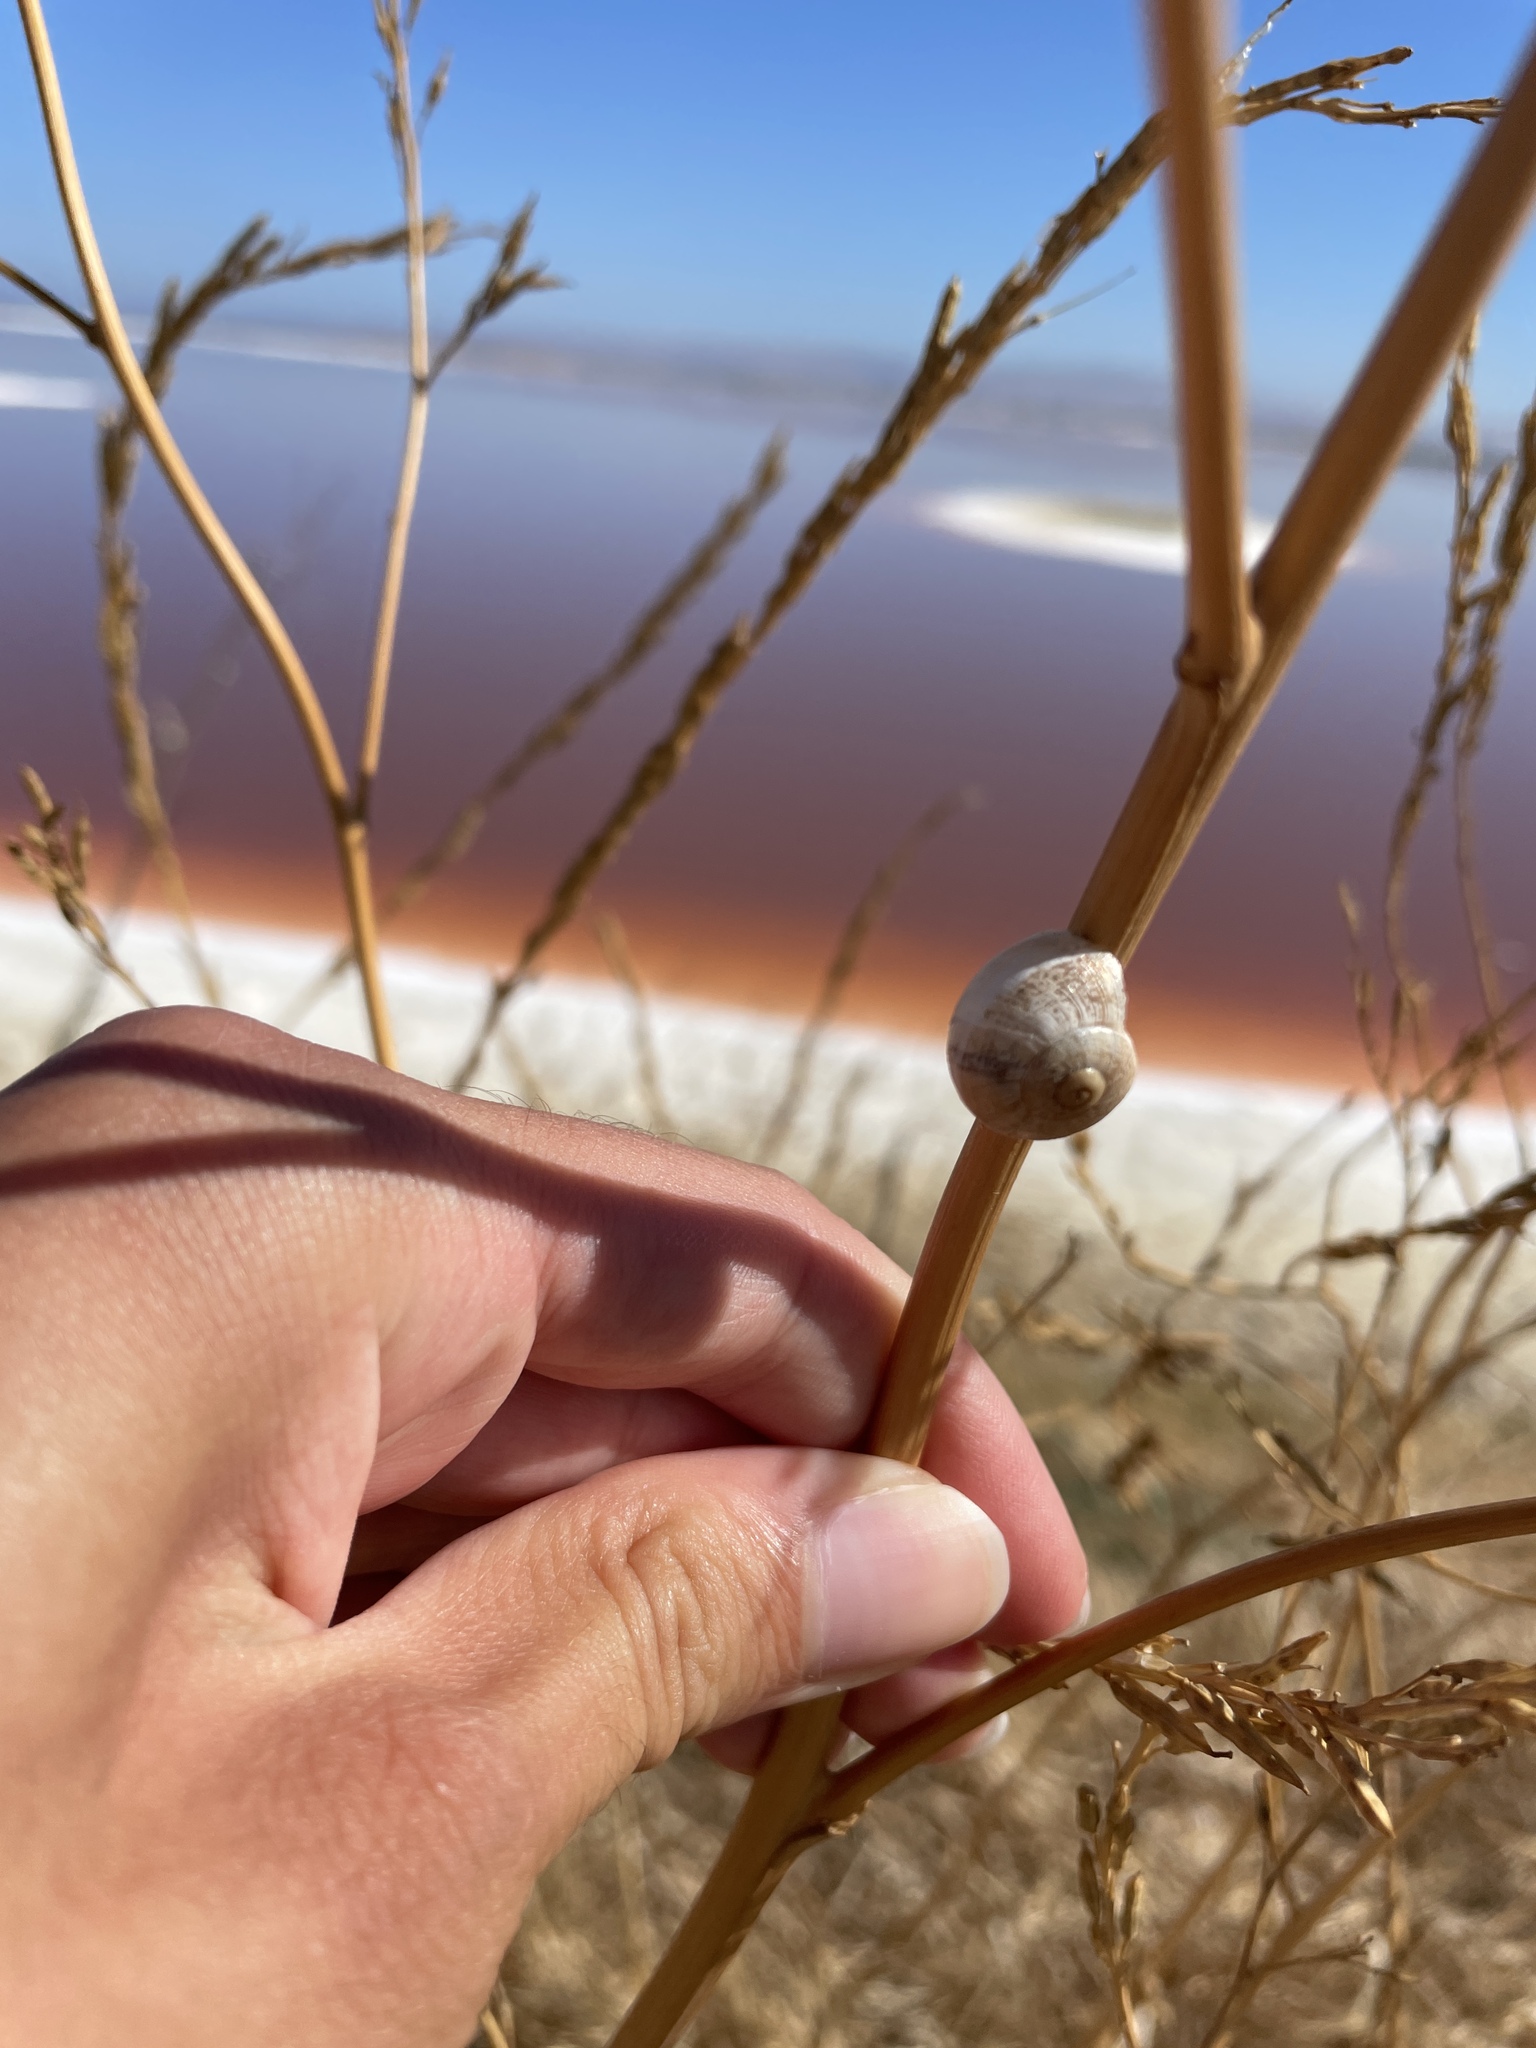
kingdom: Animalia
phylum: Mollusca
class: Gastropoda
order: Stylommatophora
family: Helicidae
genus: Otala
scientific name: Otala lactea
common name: Milk snail
